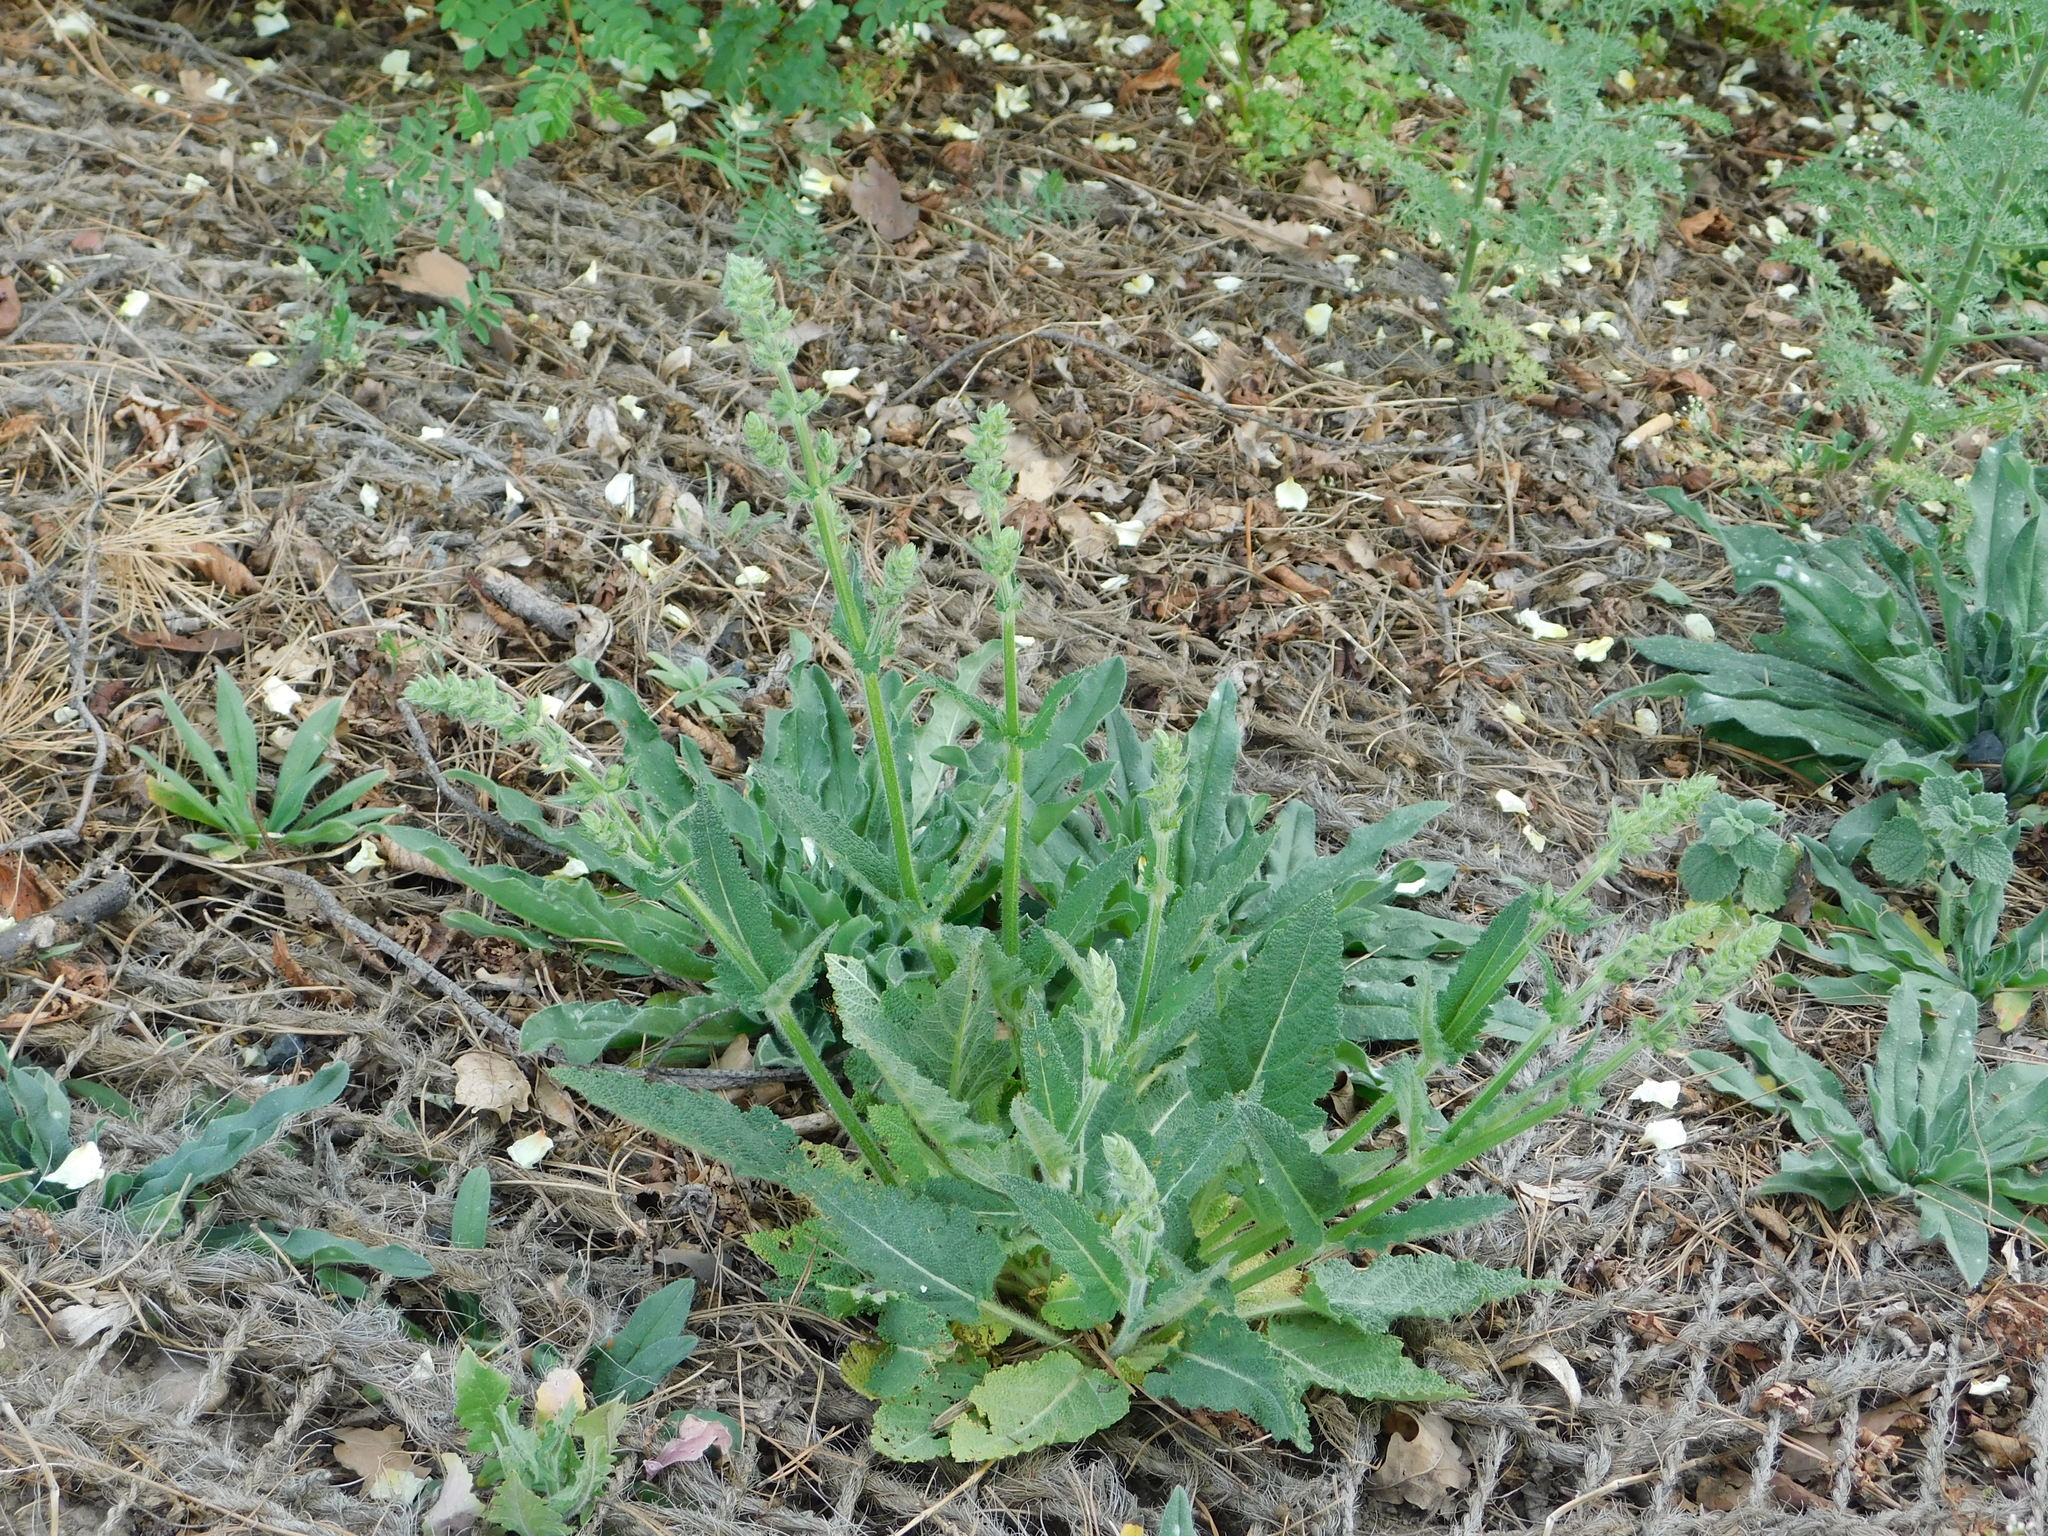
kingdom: Plantae
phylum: Tracheophyta
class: Magnoliopsida
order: Lamiales
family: Lamiaceae
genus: Salvia
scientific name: Salvia pratensis
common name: Meadow sage
